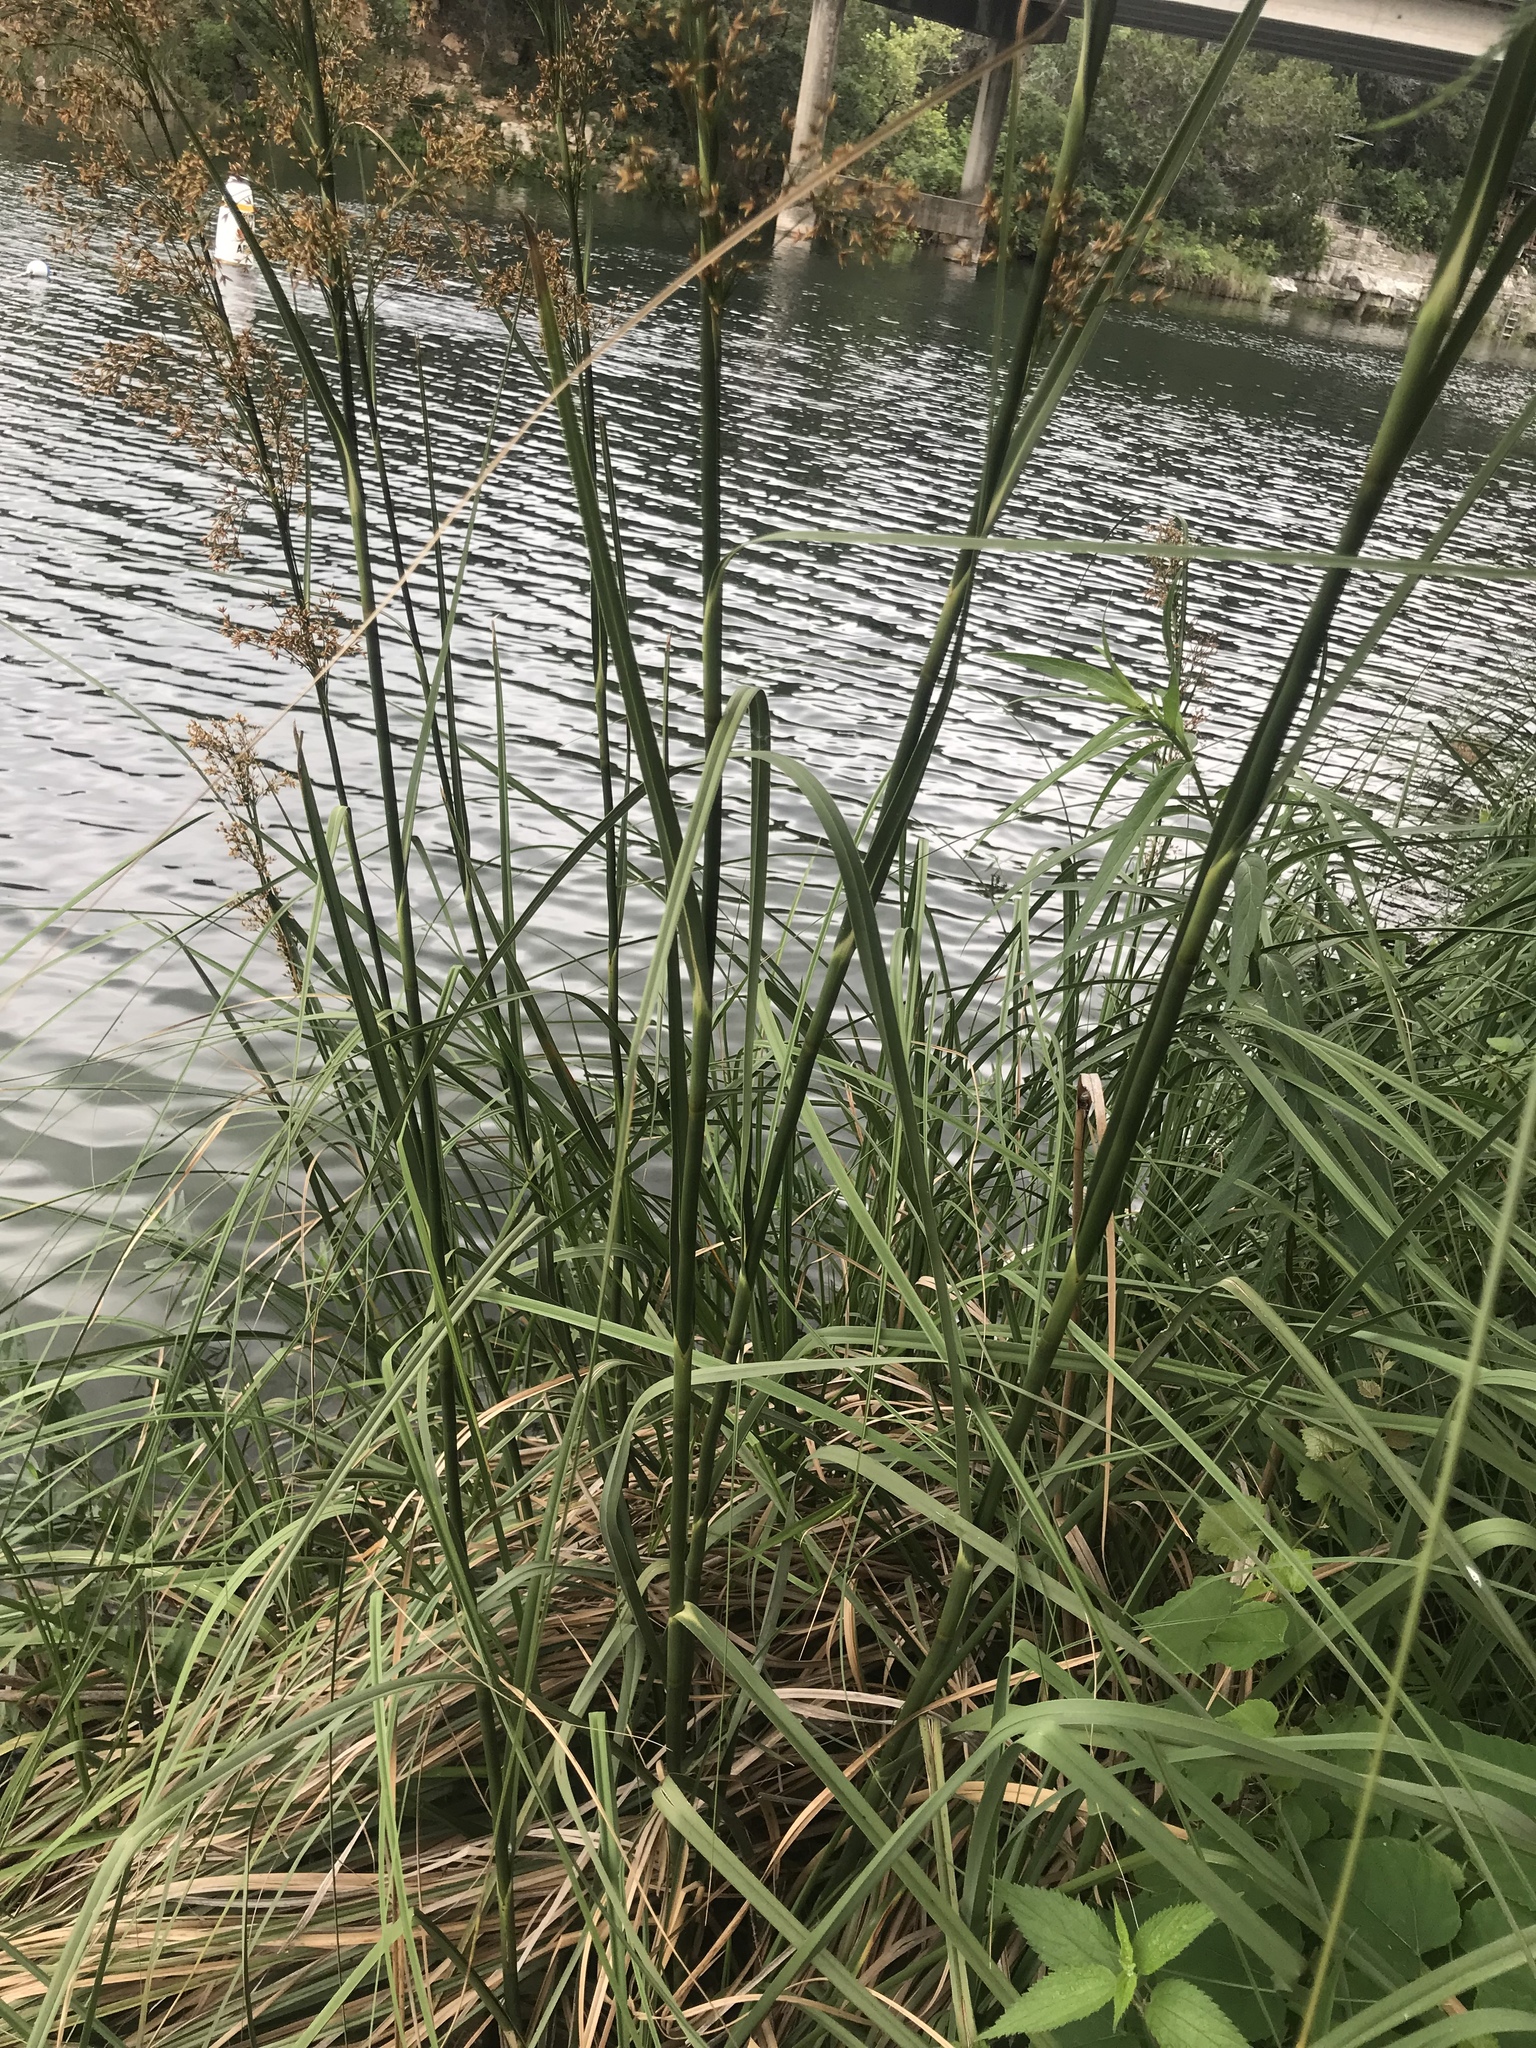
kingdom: Plantae
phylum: Tracheophyta
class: Liliopsida
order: Poales
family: Cyperaceae
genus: Cladium
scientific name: Cladium mariscus
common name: Great fen-sedge
